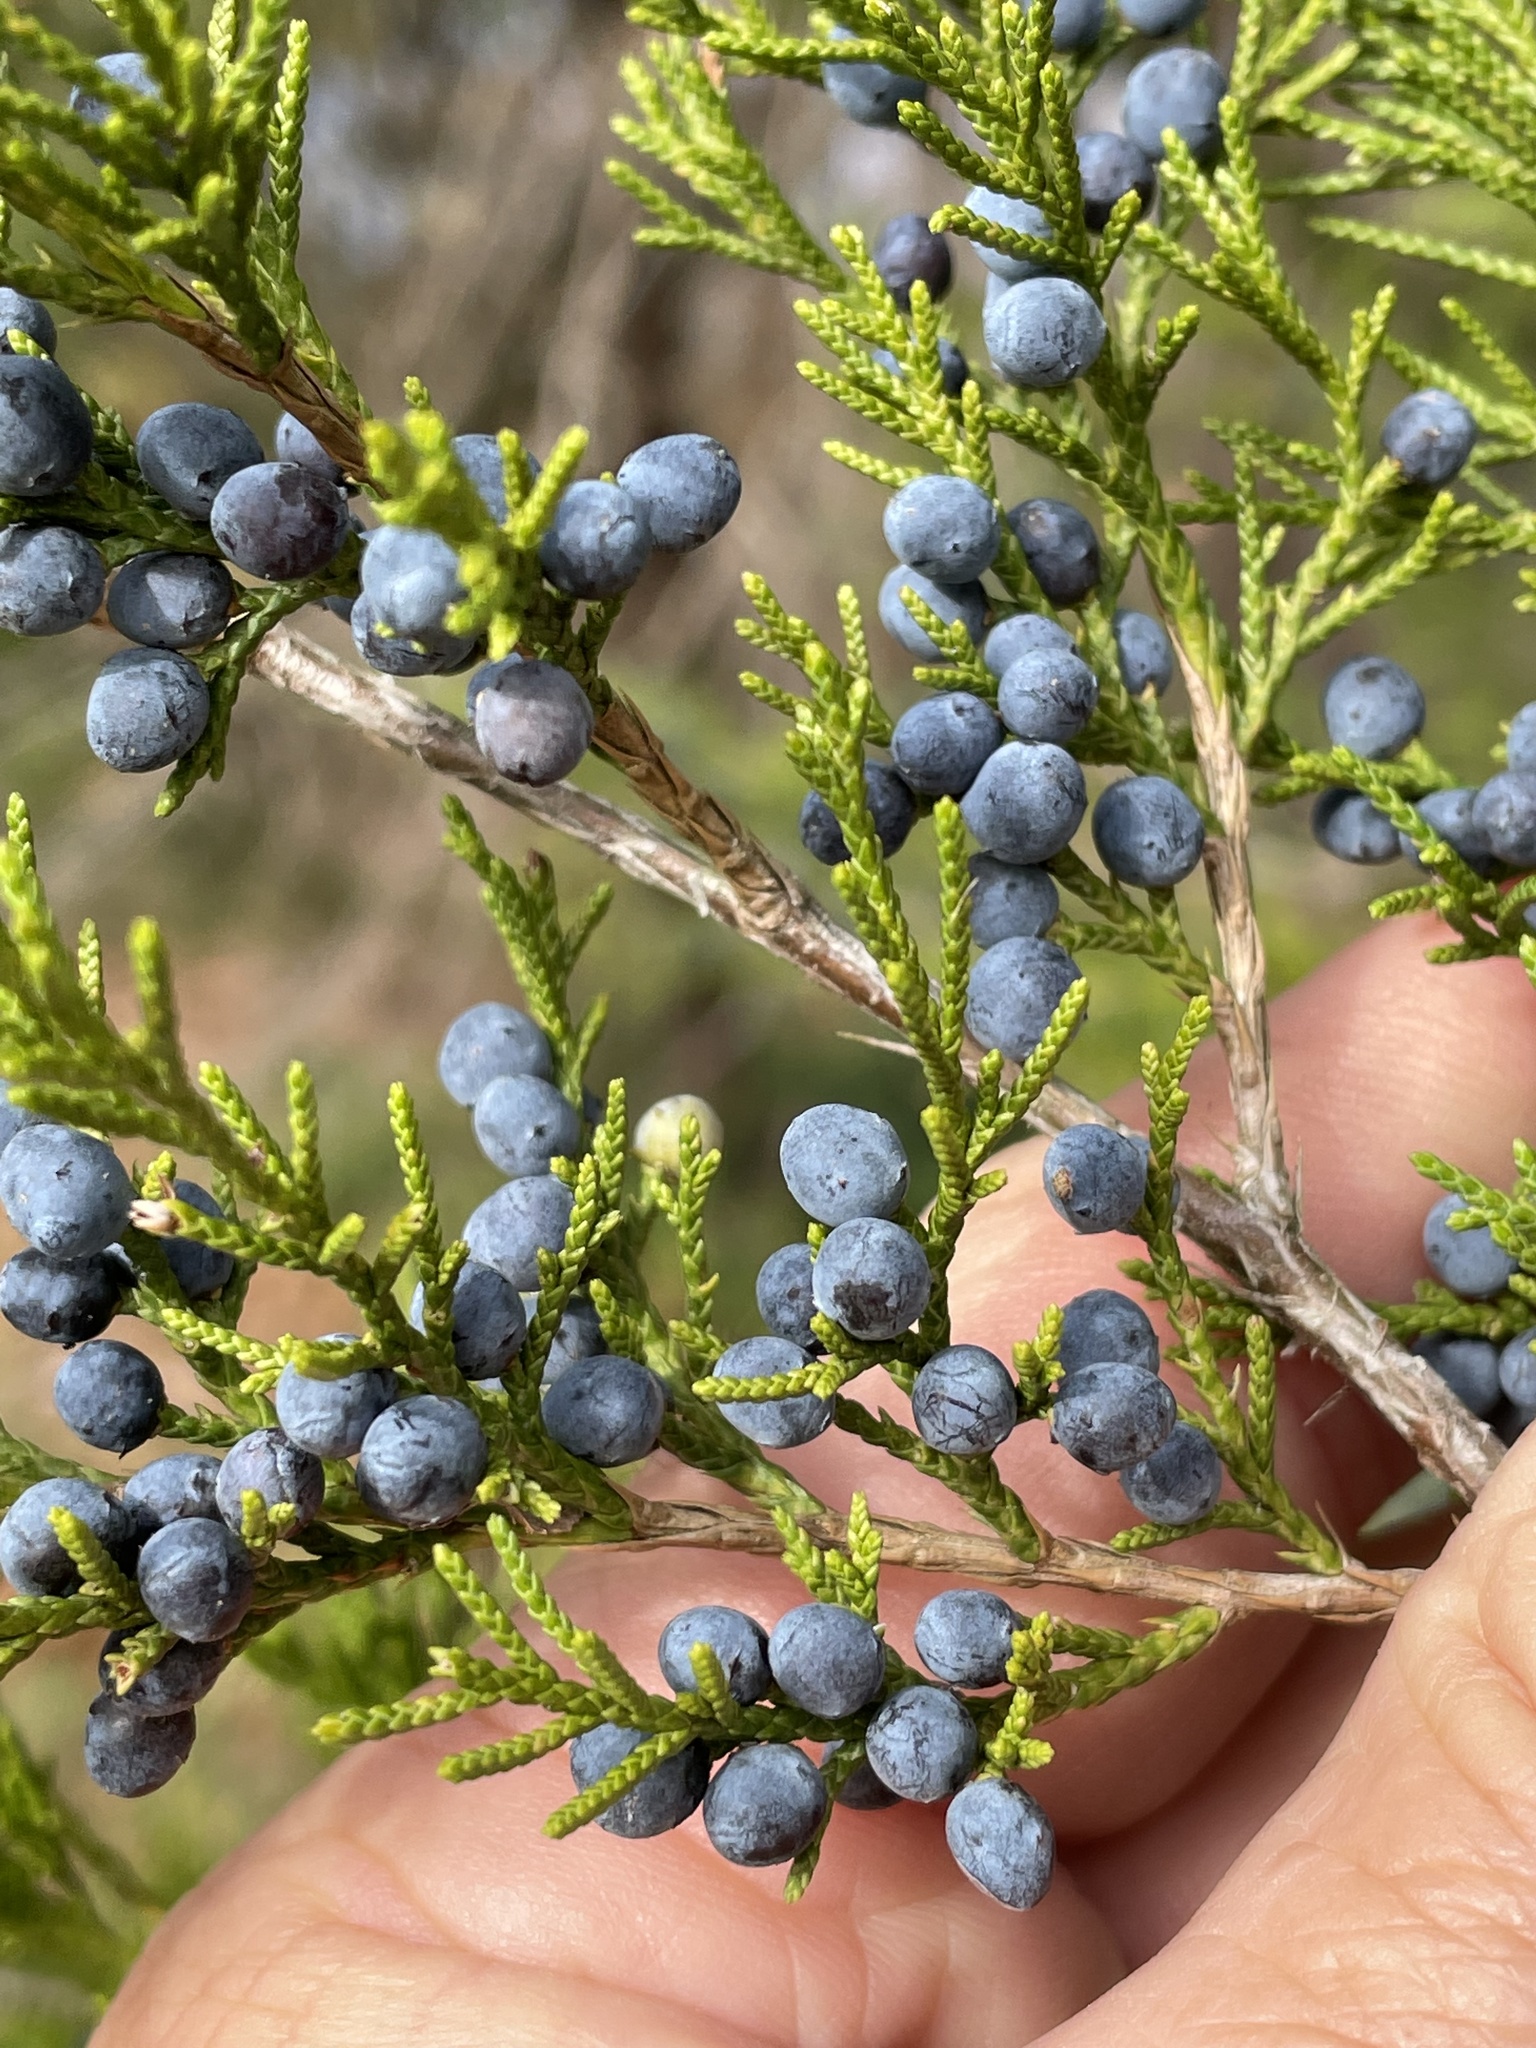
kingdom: Plantae
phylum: Tracheophyta
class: Pinopsida
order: Pinales
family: Cupressaceae
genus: Juniperus
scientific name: Juniperus virginiana
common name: Red juniper
